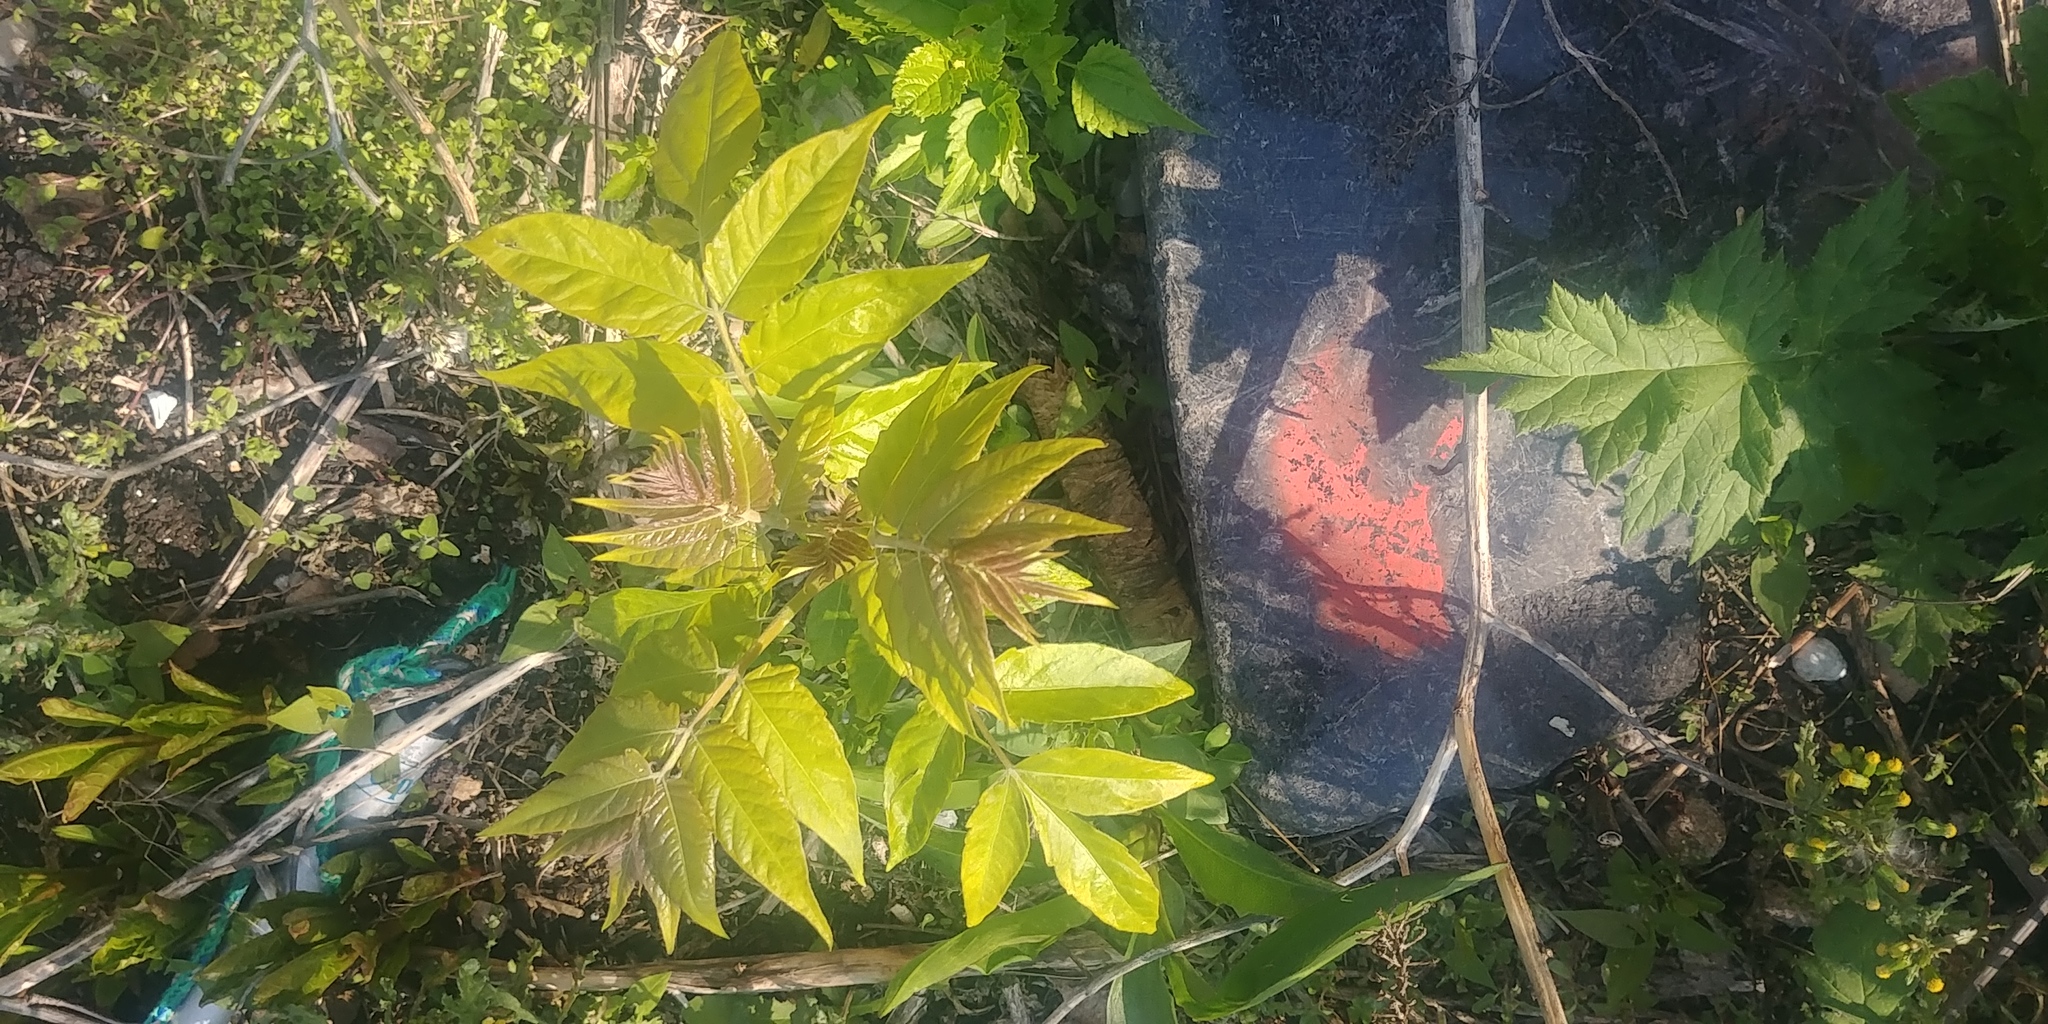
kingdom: Plantae
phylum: Tracheophyta
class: Magnoliopsida
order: Sapindales
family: Simaroubaceae
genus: Ailanthus
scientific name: Ailanthus altissima
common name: Tree-of-heaven
